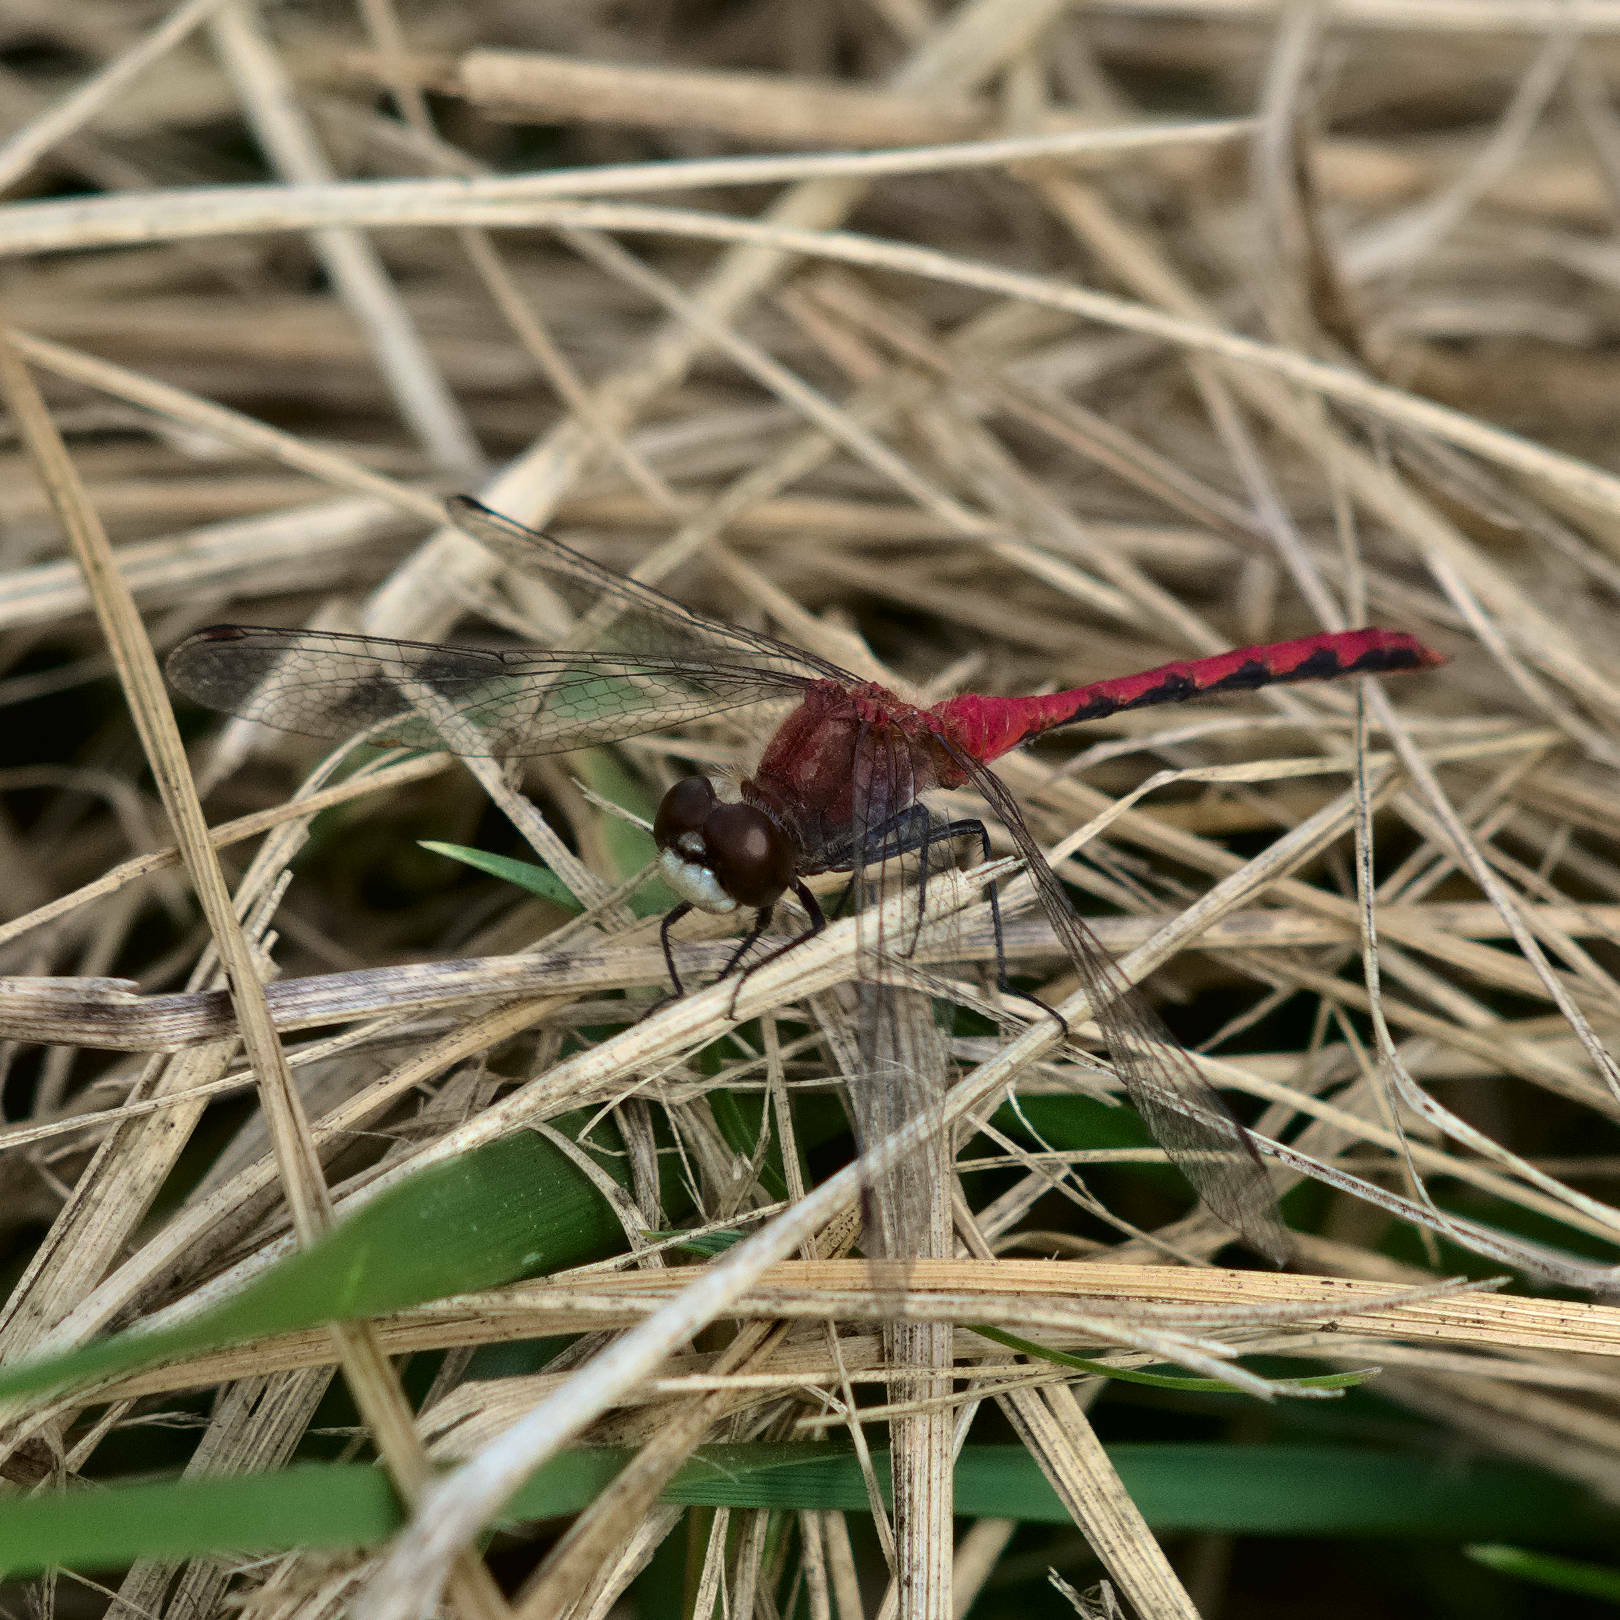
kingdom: Animalia
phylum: Arthropoda
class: Insecta
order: Odonata
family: Libellulidae
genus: Sympetrum
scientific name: Sympetrum obtrusum
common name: White-faced meadowhawk
